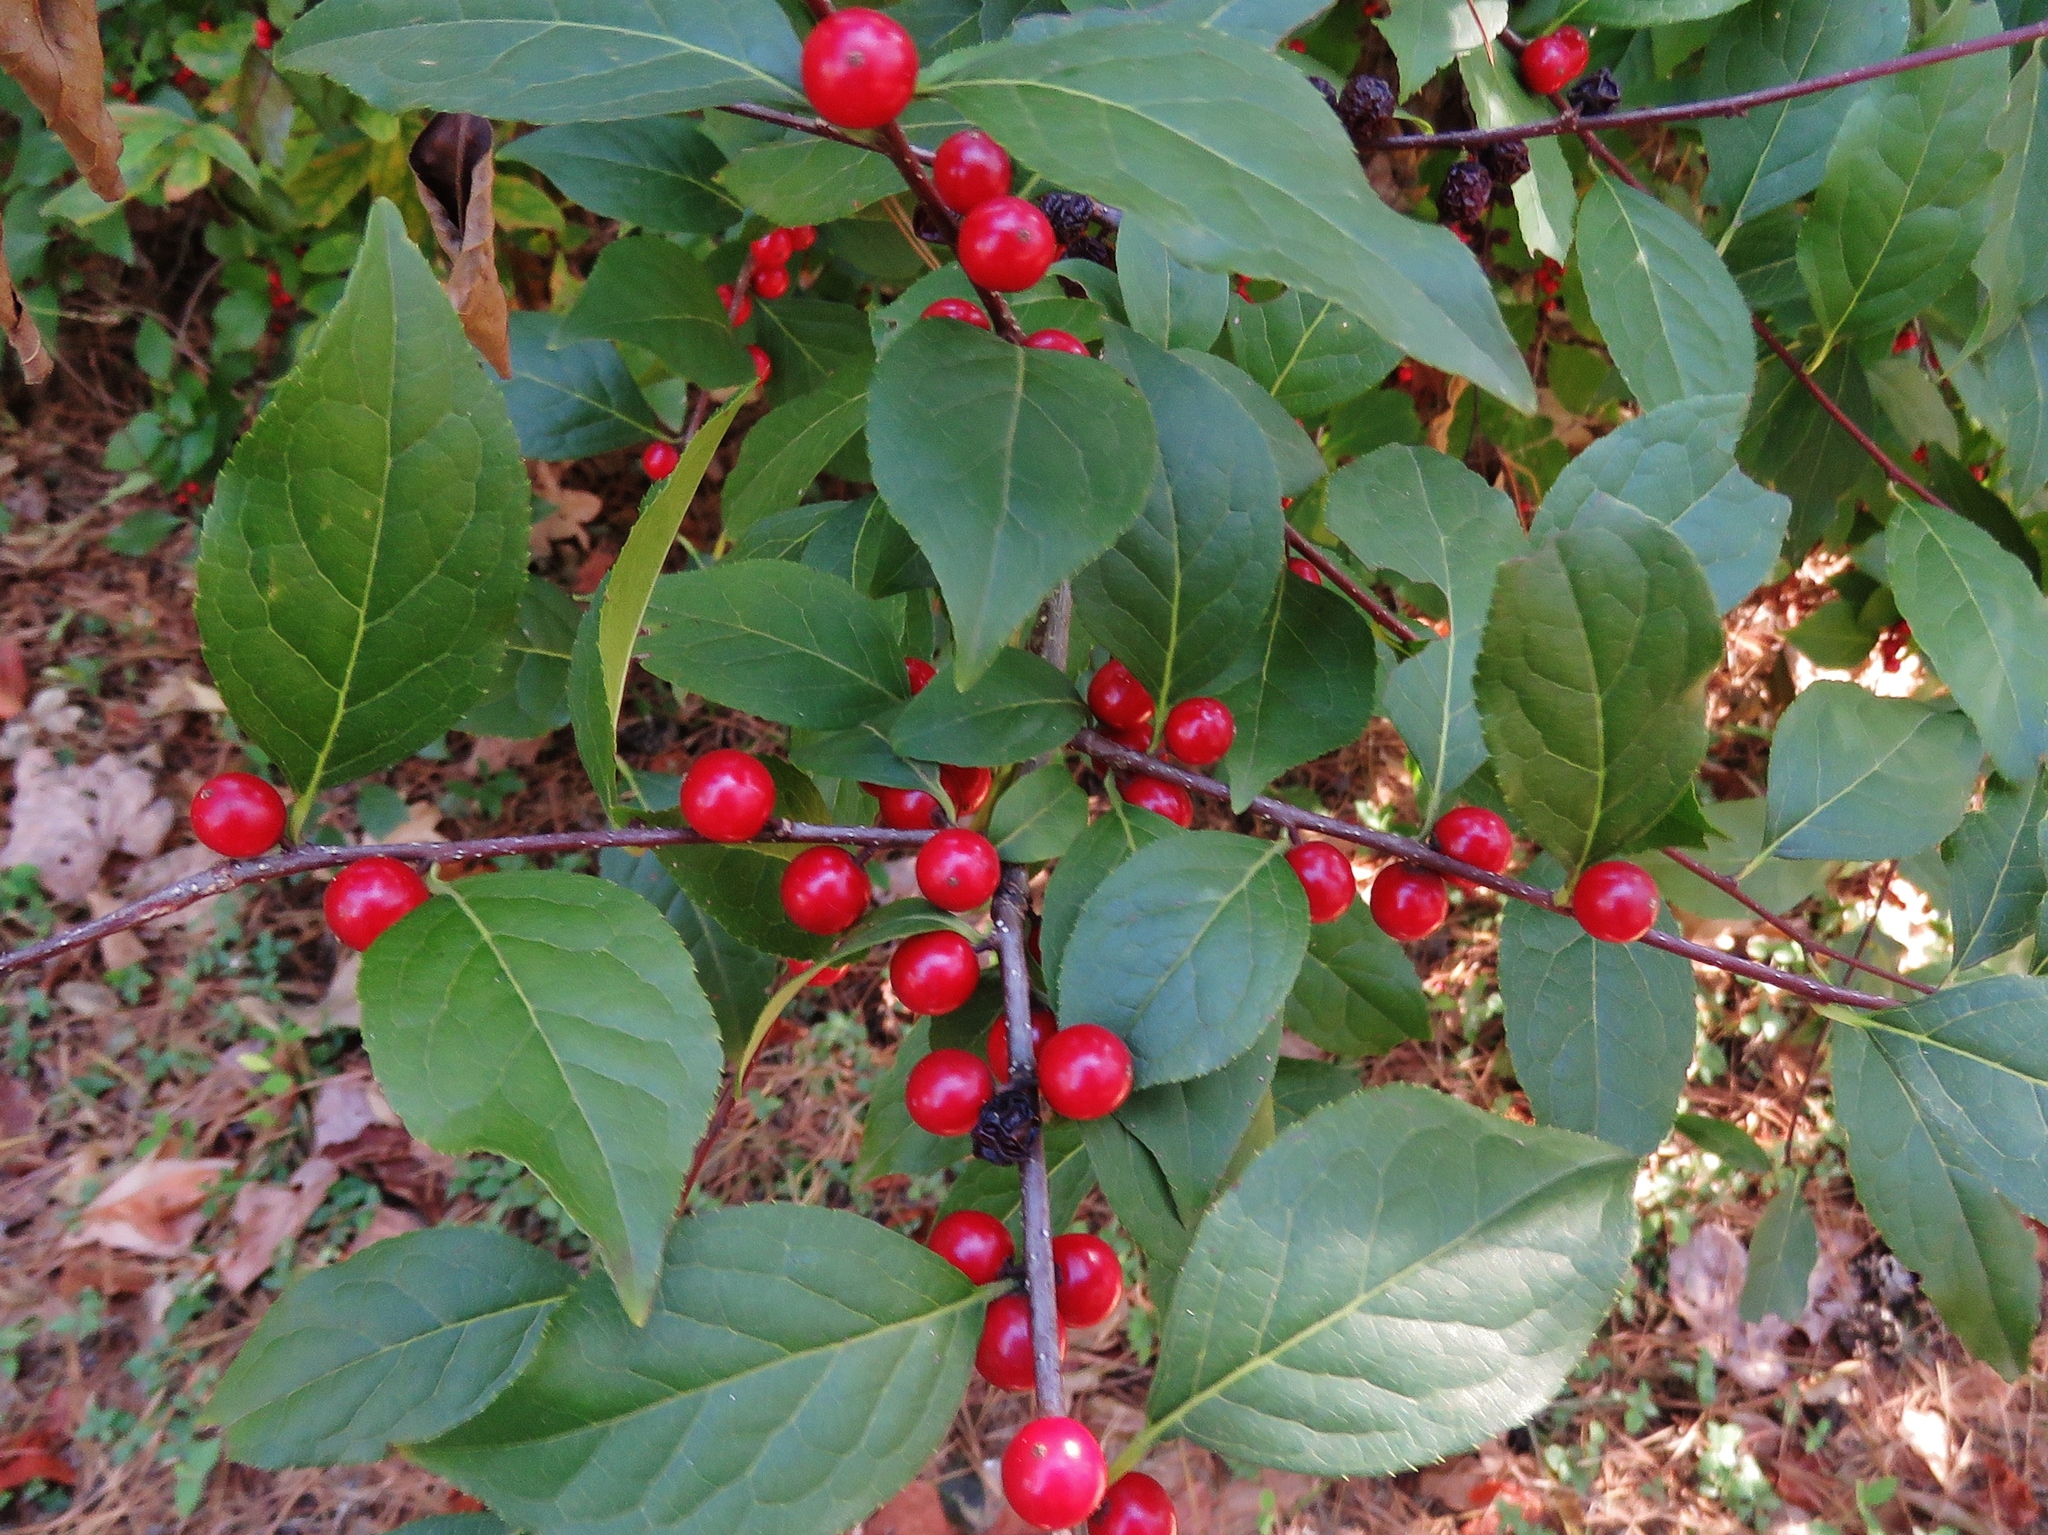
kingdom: Plantae
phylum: Tracheophyta
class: Magnoliopsida
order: Aquifoliales
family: Aquifoliaceae
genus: Ilex
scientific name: Ilex ambigua
